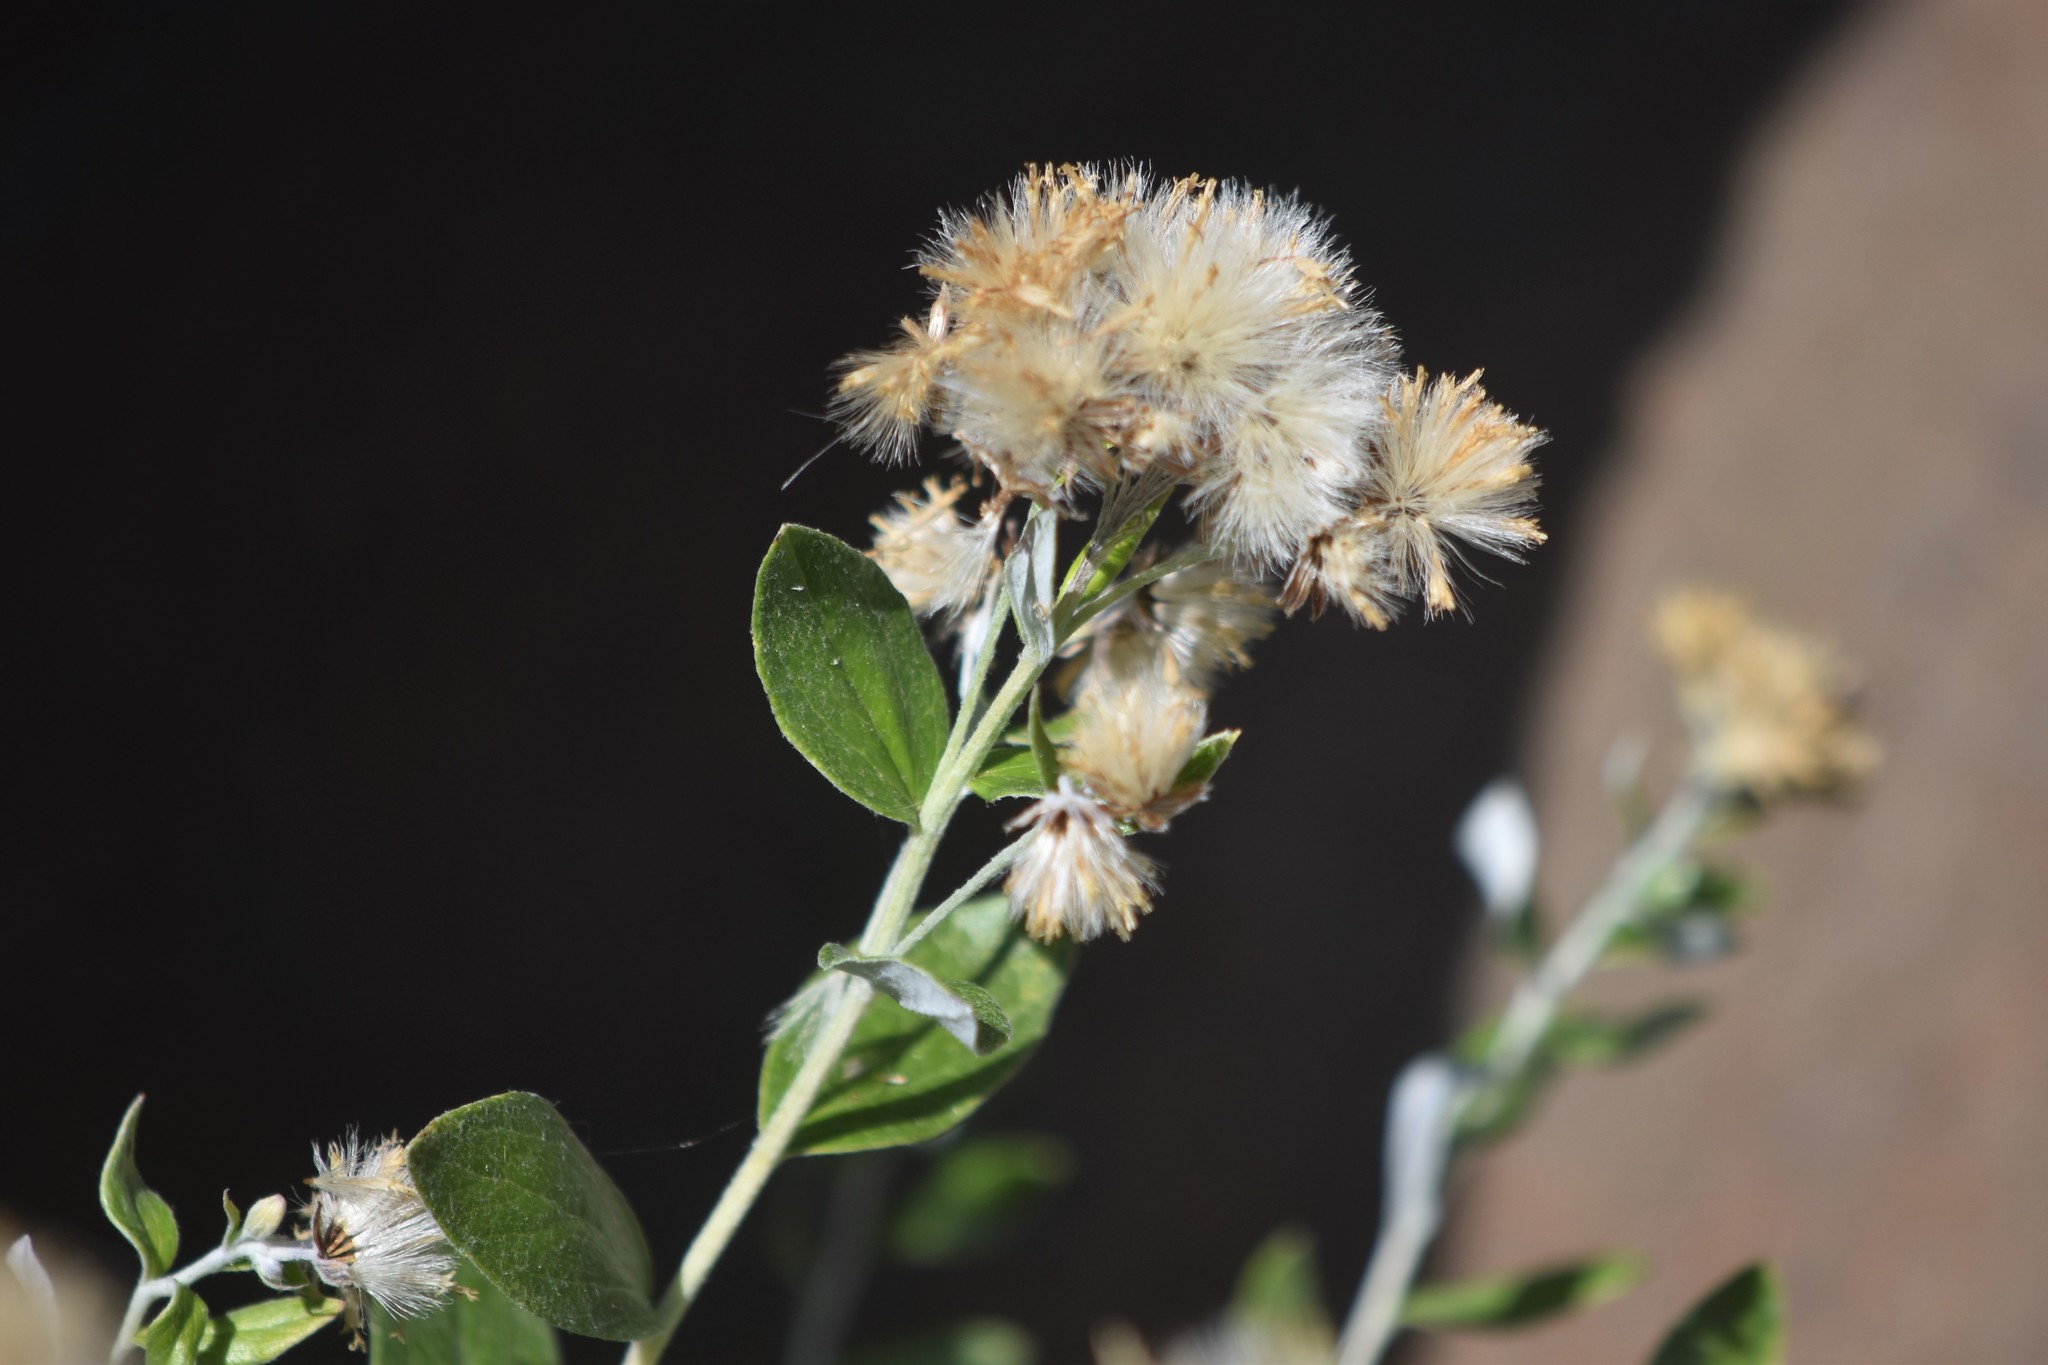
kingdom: Plantae
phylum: Tracheophyta
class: Magnoliopsida
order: Asterales
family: Asteraceae
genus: Luina
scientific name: Luina hypoleuca
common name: Little-leaved luina
